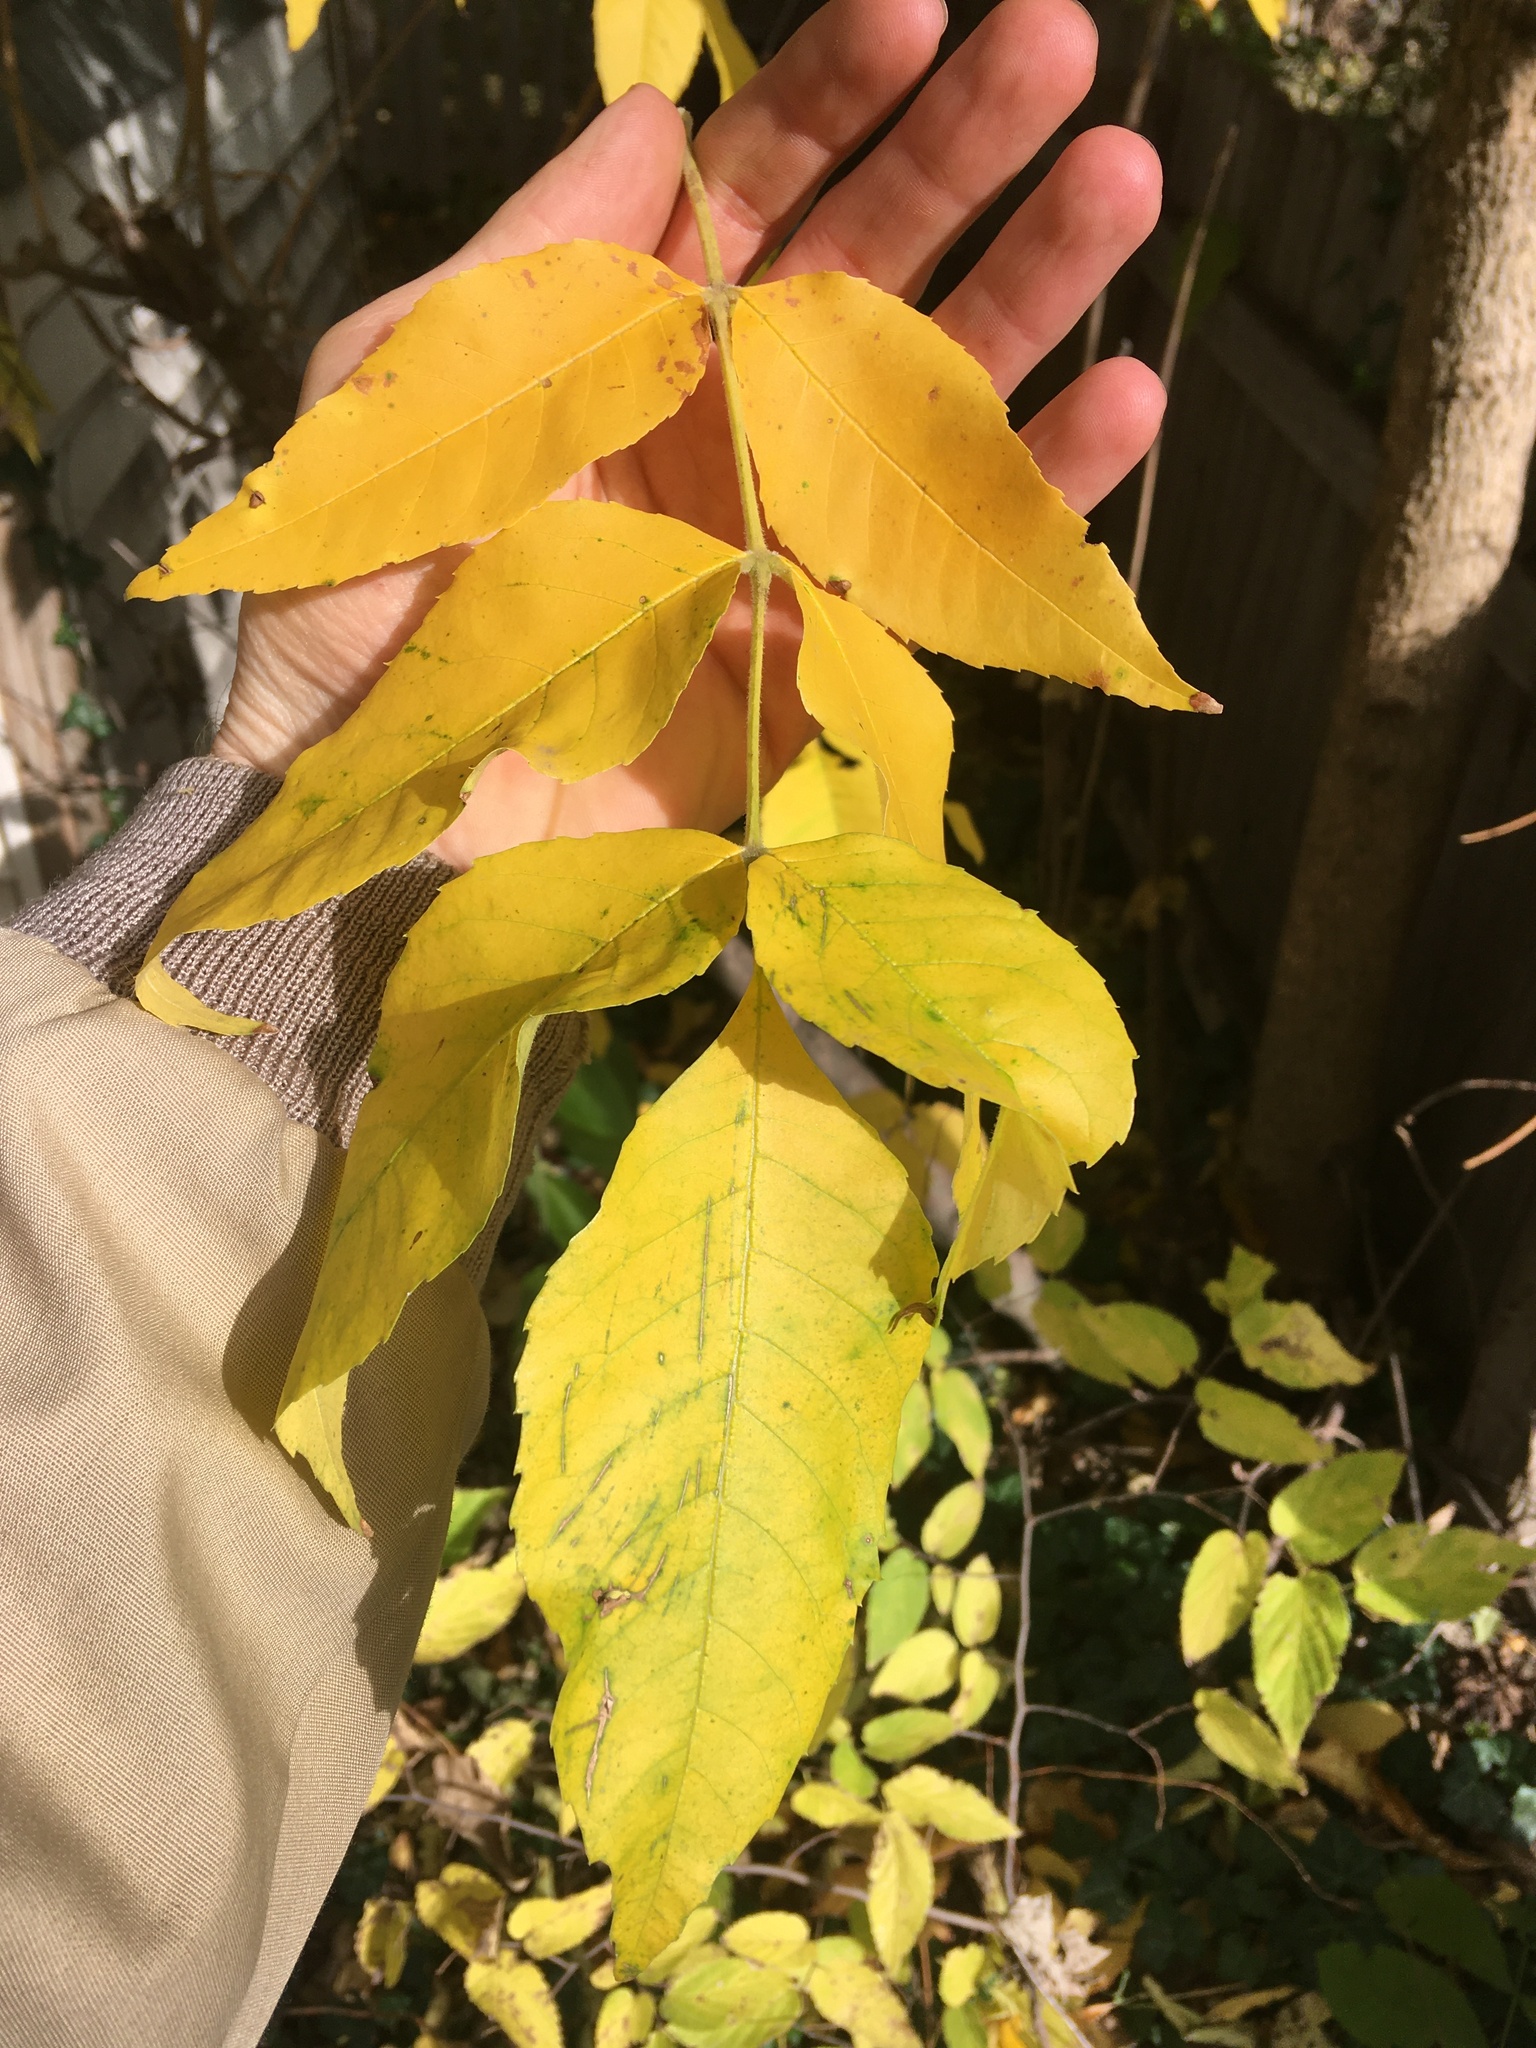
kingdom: Plantae
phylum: Tracheophyta
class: Magnoliopsida
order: Lamiales
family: Oleaceae
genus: Fraxinus
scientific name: Fraxinus pennsylvanica
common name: Green ash
